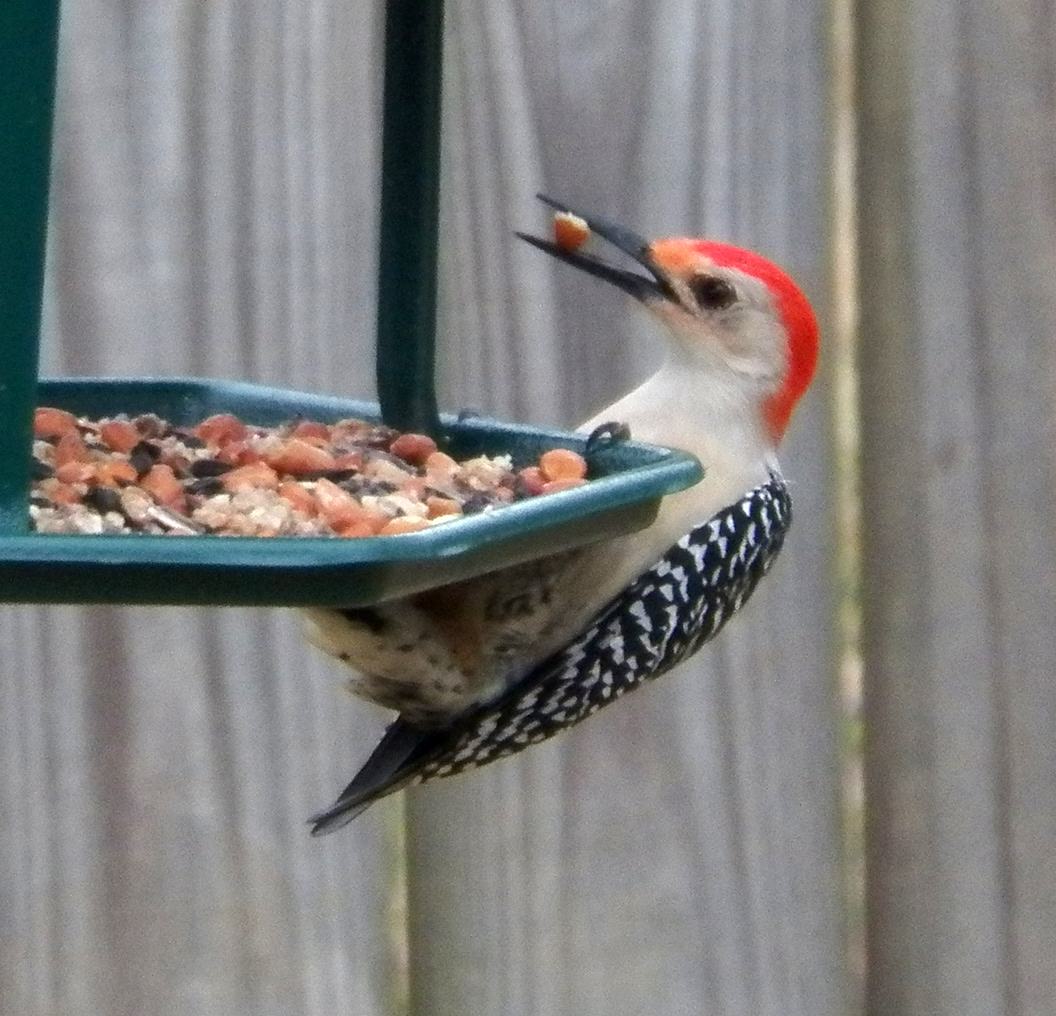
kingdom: Animalia
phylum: Chordata
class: Aves
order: Piciformes
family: Picidae
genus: Melanerpes
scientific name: Melanerpes carolinus
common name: Red-bellied woodpecker
